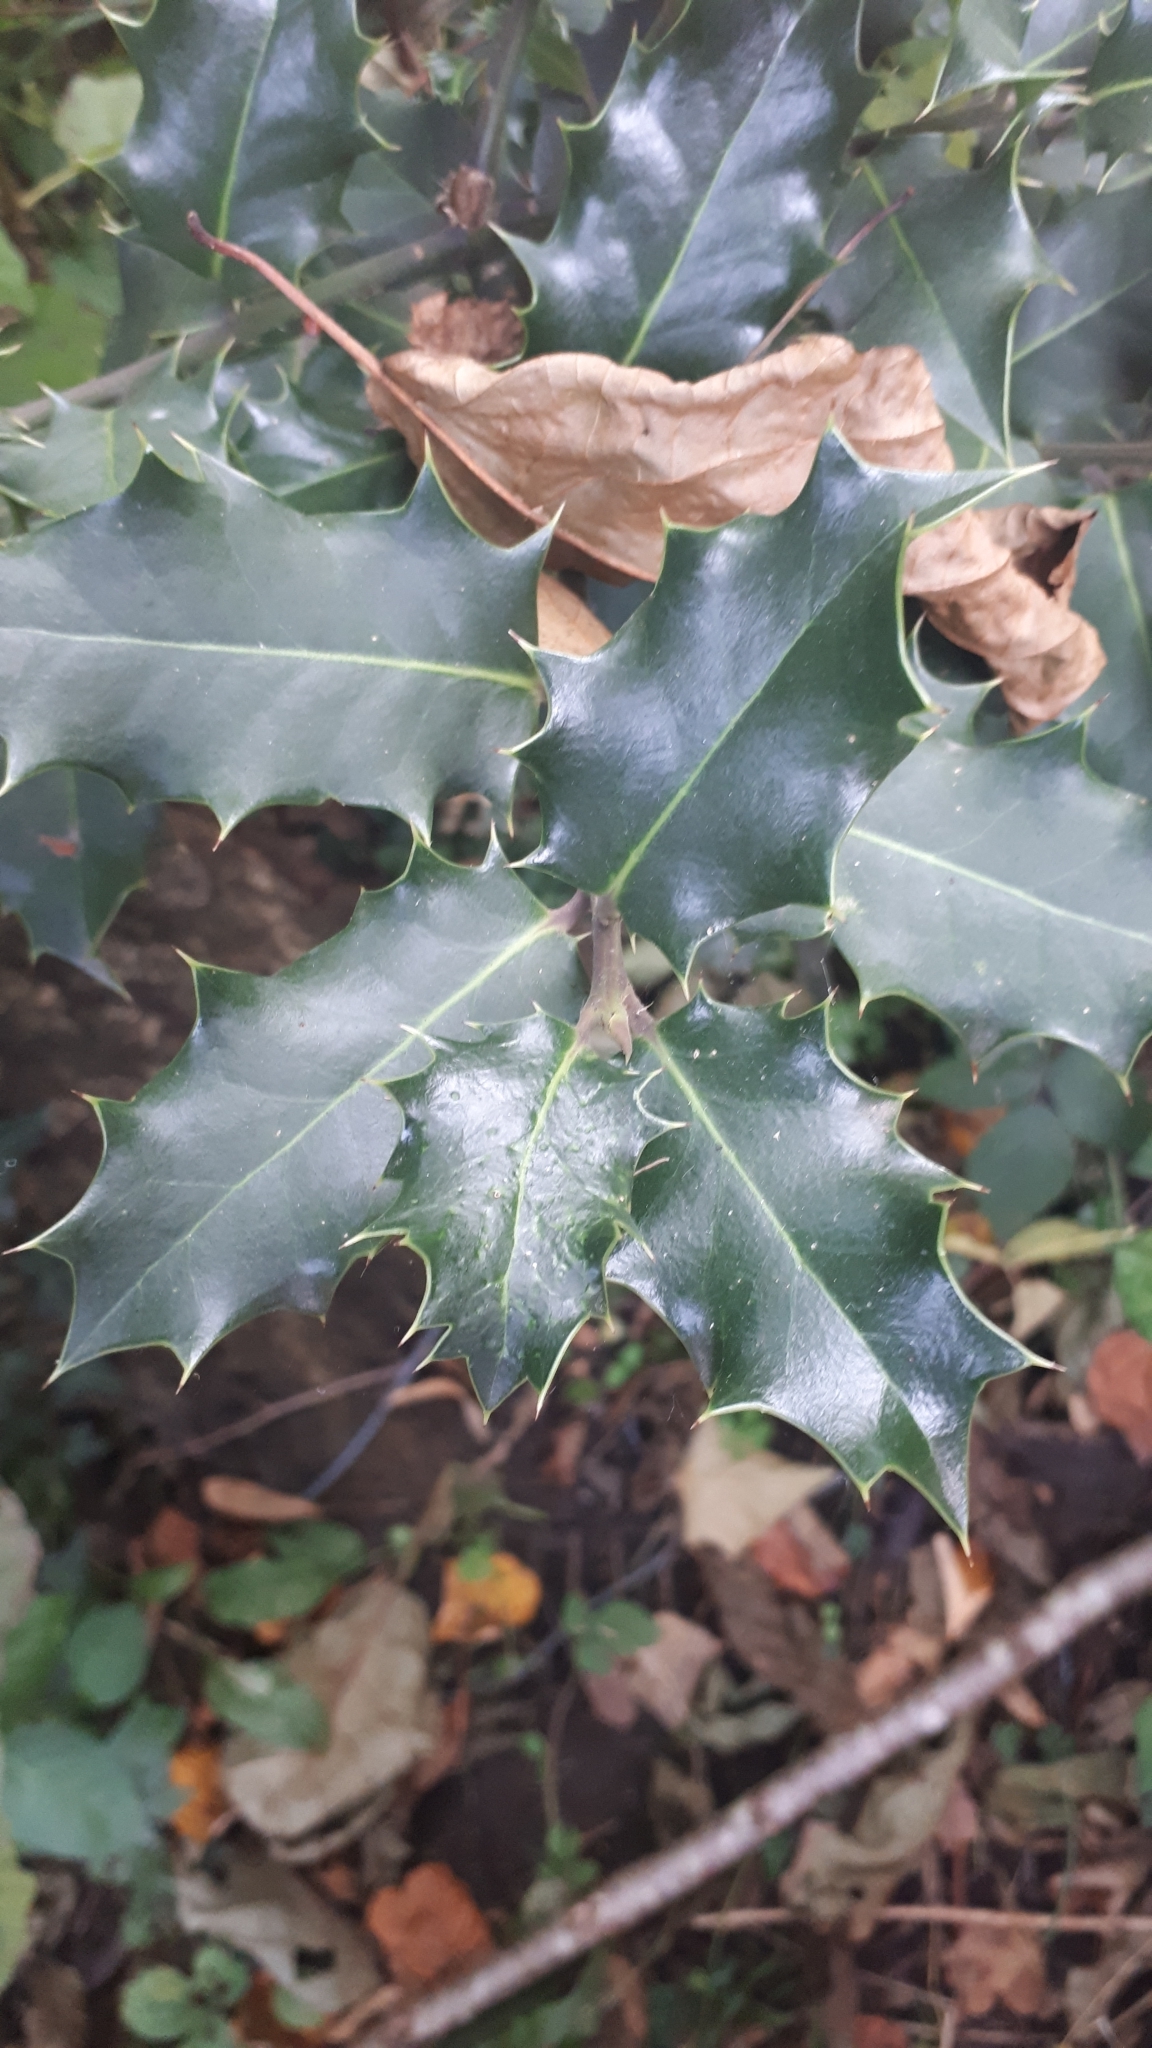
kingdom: Plantae
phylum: Tracheophyta
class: Magnoliopsida
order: Aquifoliales
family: Aquifoliaceae
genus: Ilex
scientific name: Ilex aquifolium
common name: English holly
